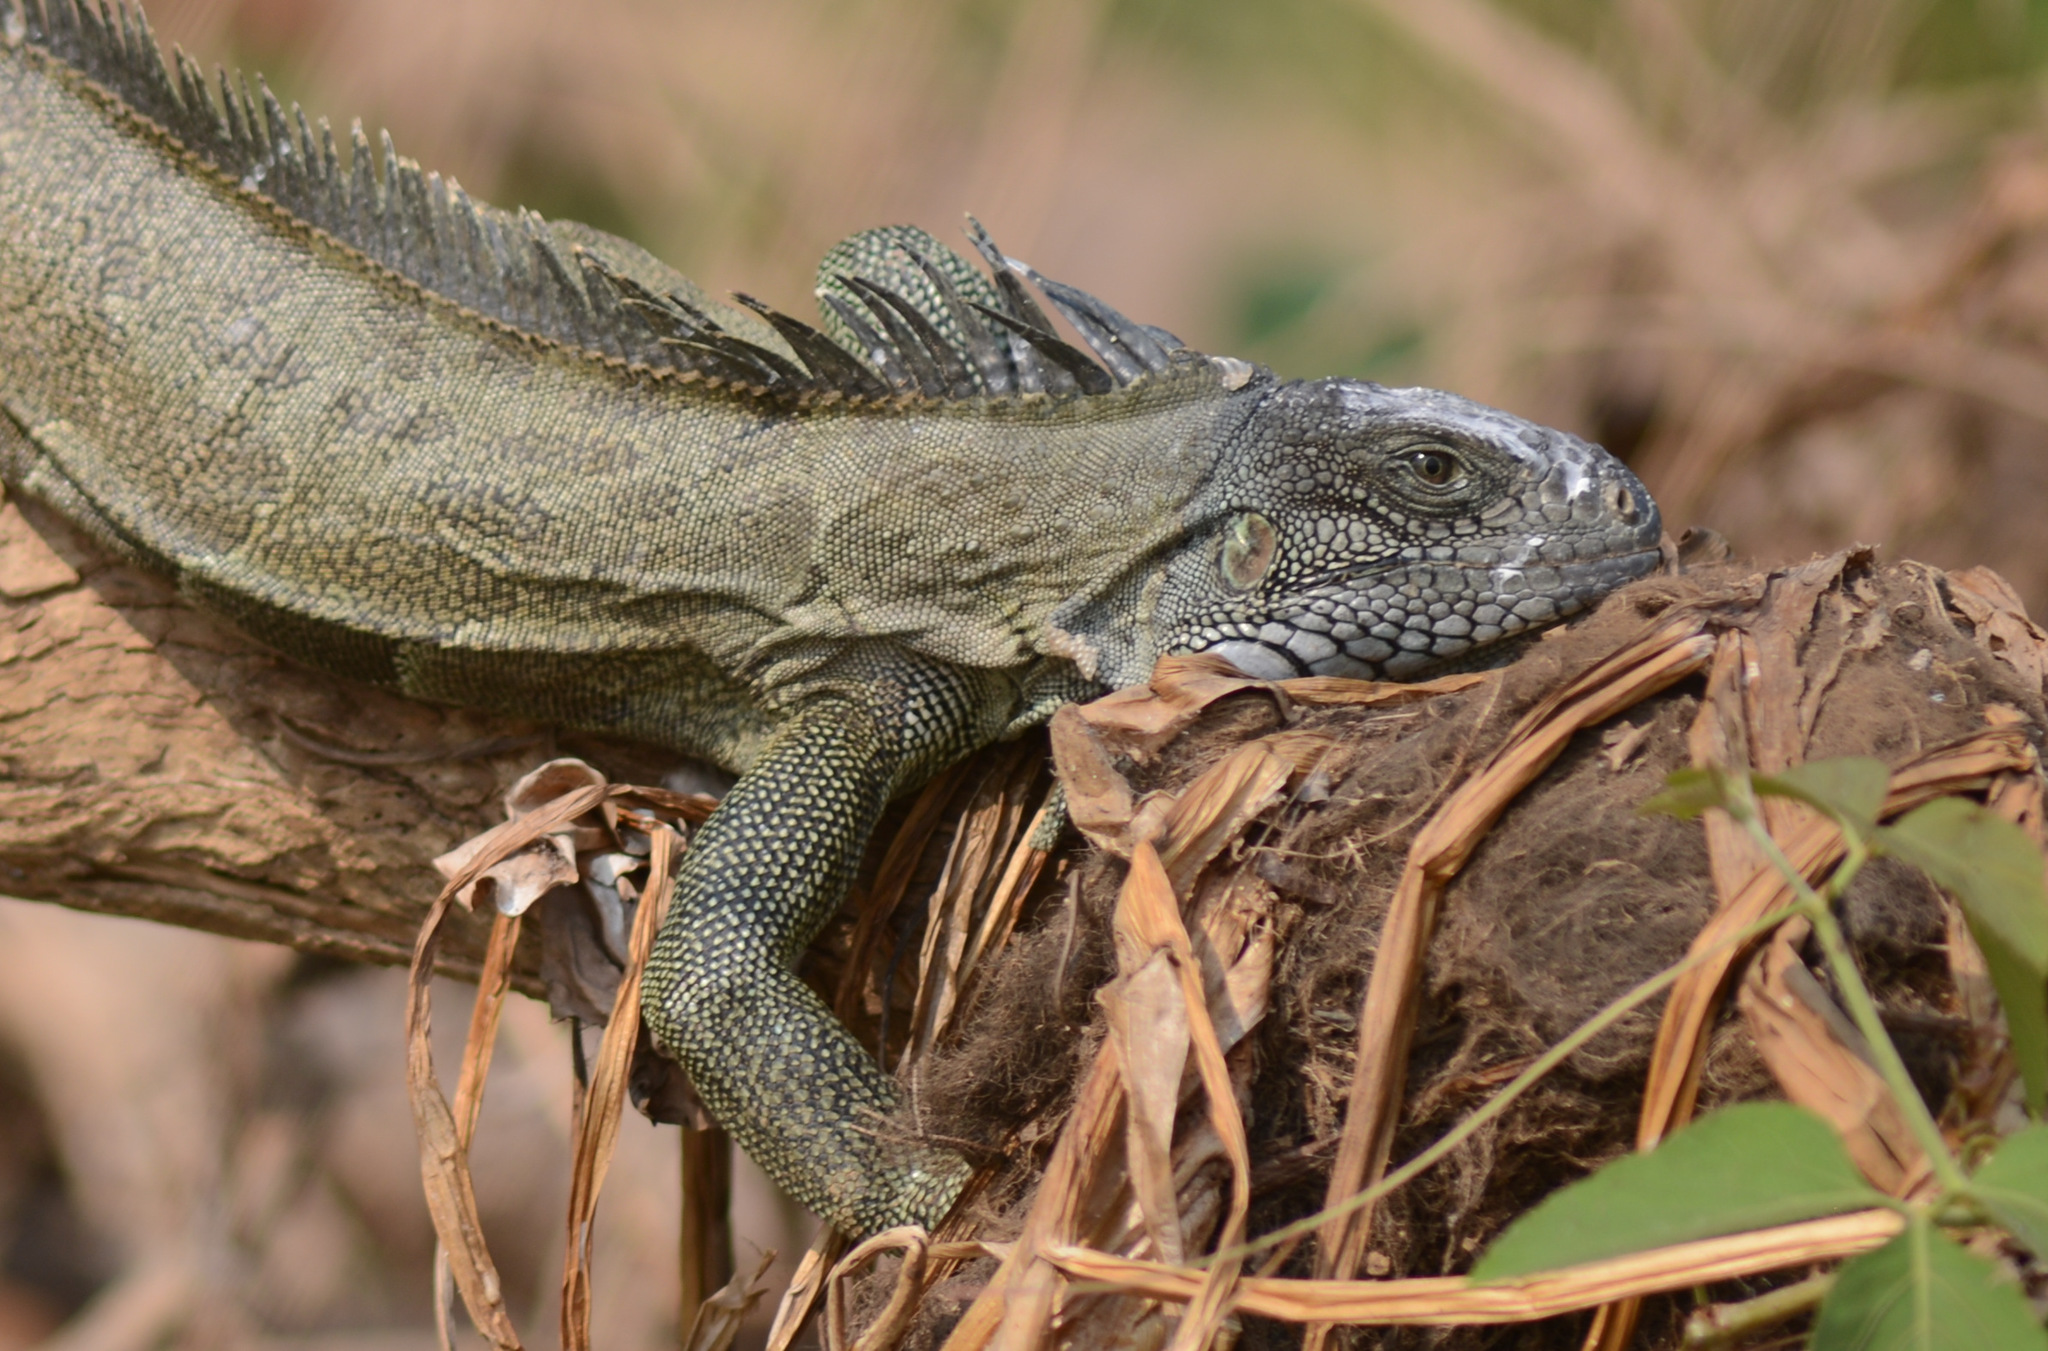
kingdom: Animalia
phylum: Chordata
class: Squamata
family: Iguanidae
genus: Iguana
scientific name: Iguana iguana
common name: Green iguana
